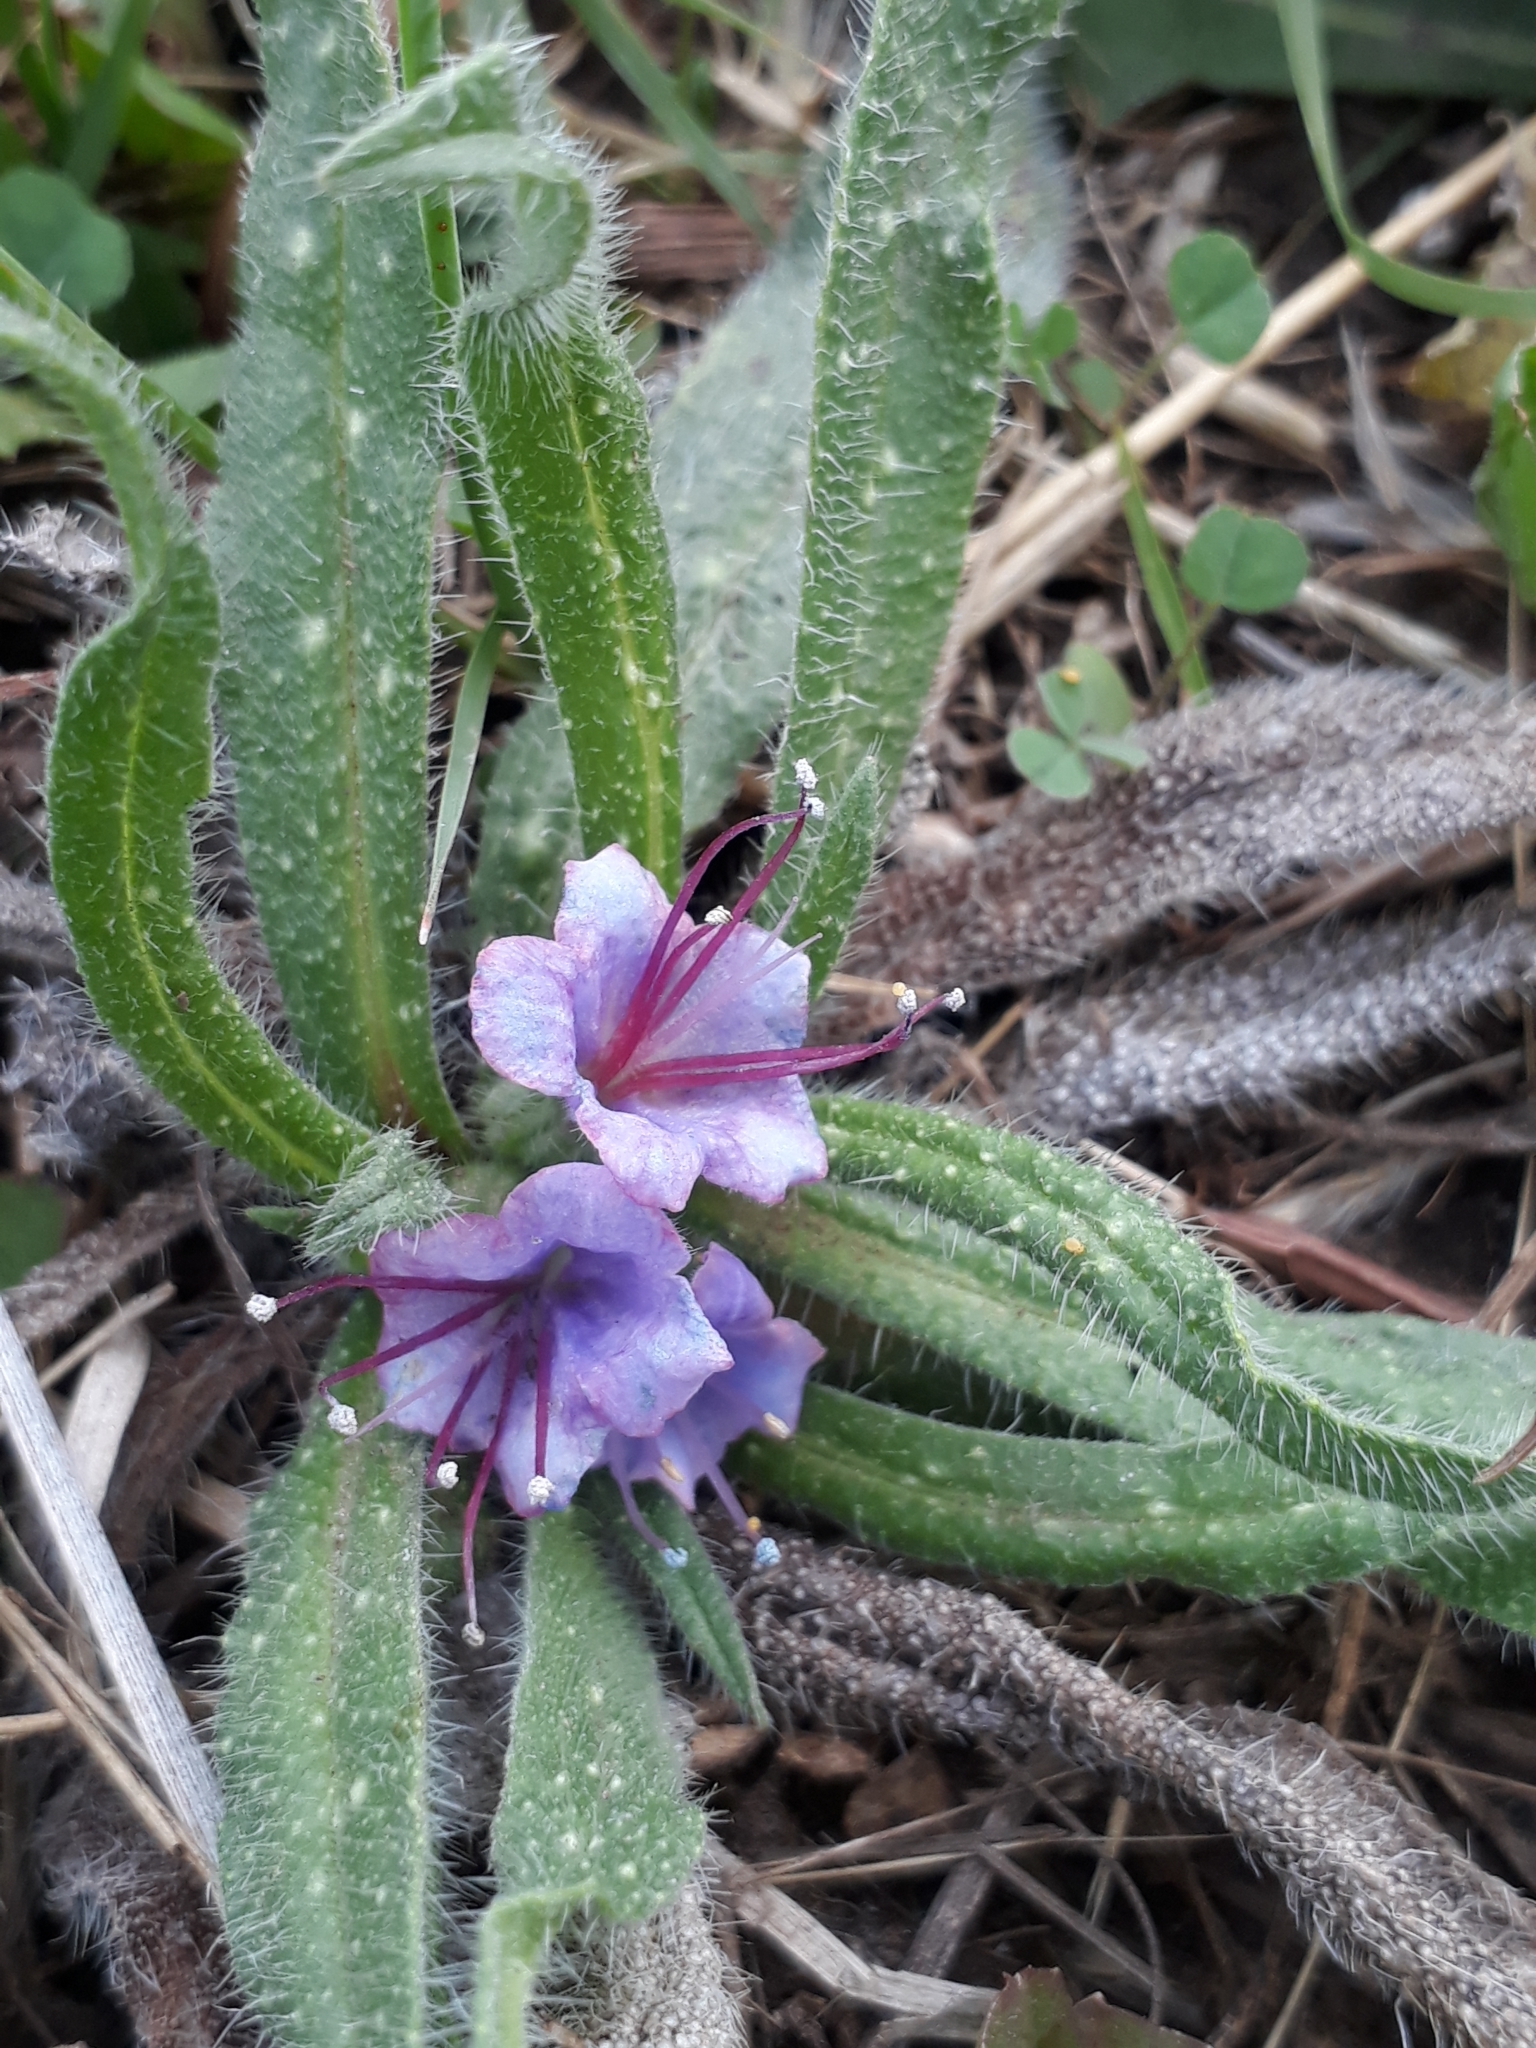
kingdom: Plantae
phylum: Tracheophyta
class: Magnoliopsida
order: Boraginales
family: Boraginaceae
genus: Echium
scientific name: Echium vulgare
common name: Common viper's bugloss
